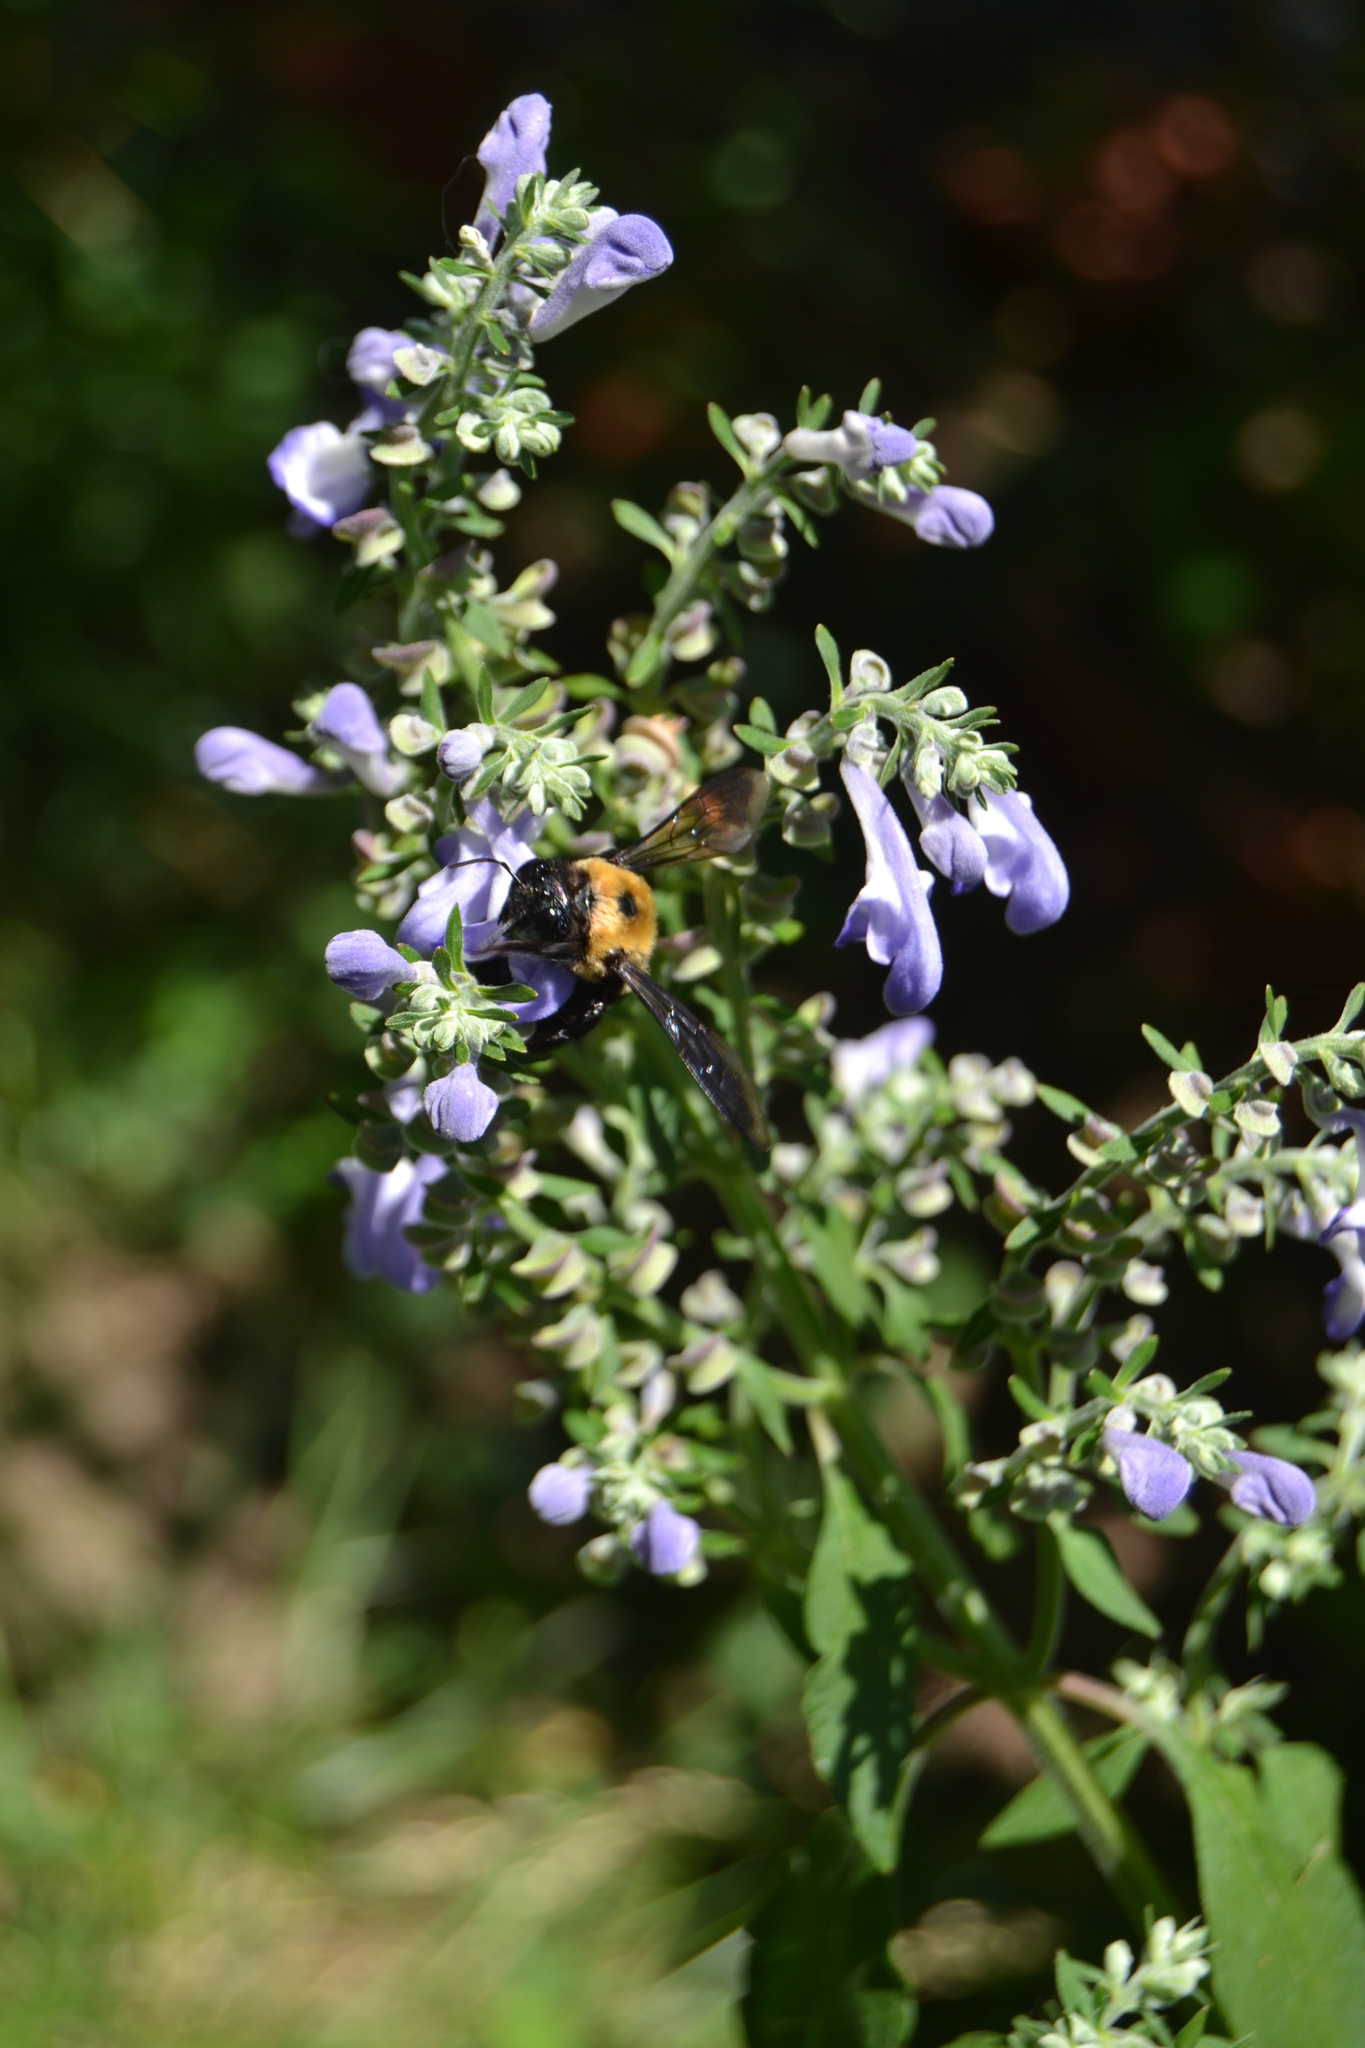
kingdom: Animalia
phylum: Arthropoda
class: Insecta
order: Hymenoptera
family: Apidae
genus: Xylocopa
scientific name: Xylocopa virginica
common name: Carpenter bee
